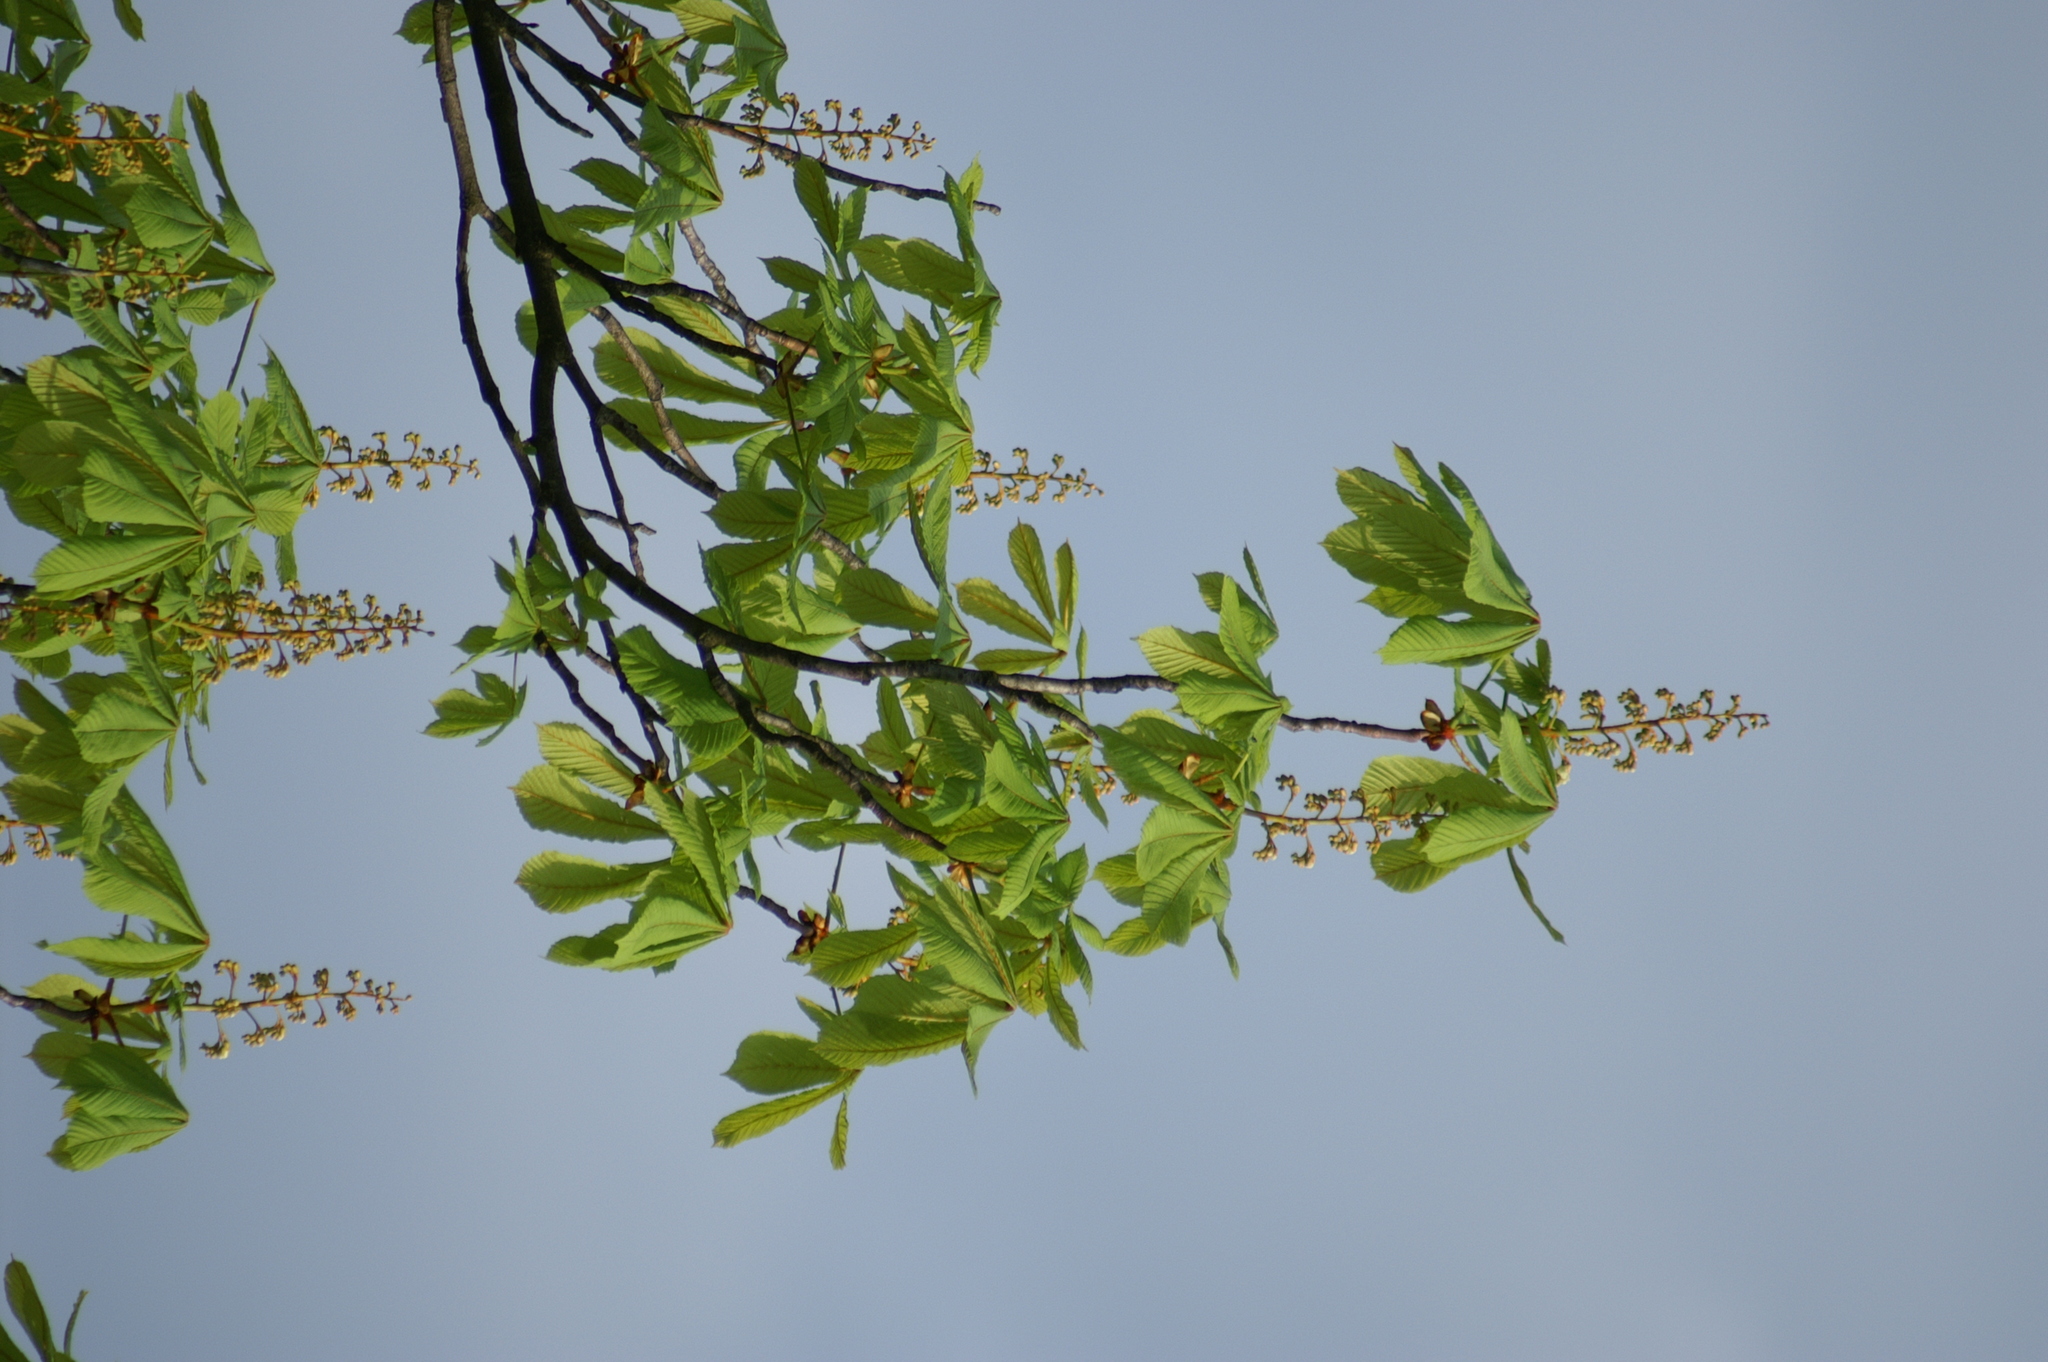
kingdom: Plantae
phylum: Tracheophyta
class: Magnoliopsida
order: Sapindales
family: Sapindaceae
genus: Aesculus
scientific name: Aesculus hippocastanum
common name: Horse-chestnut
